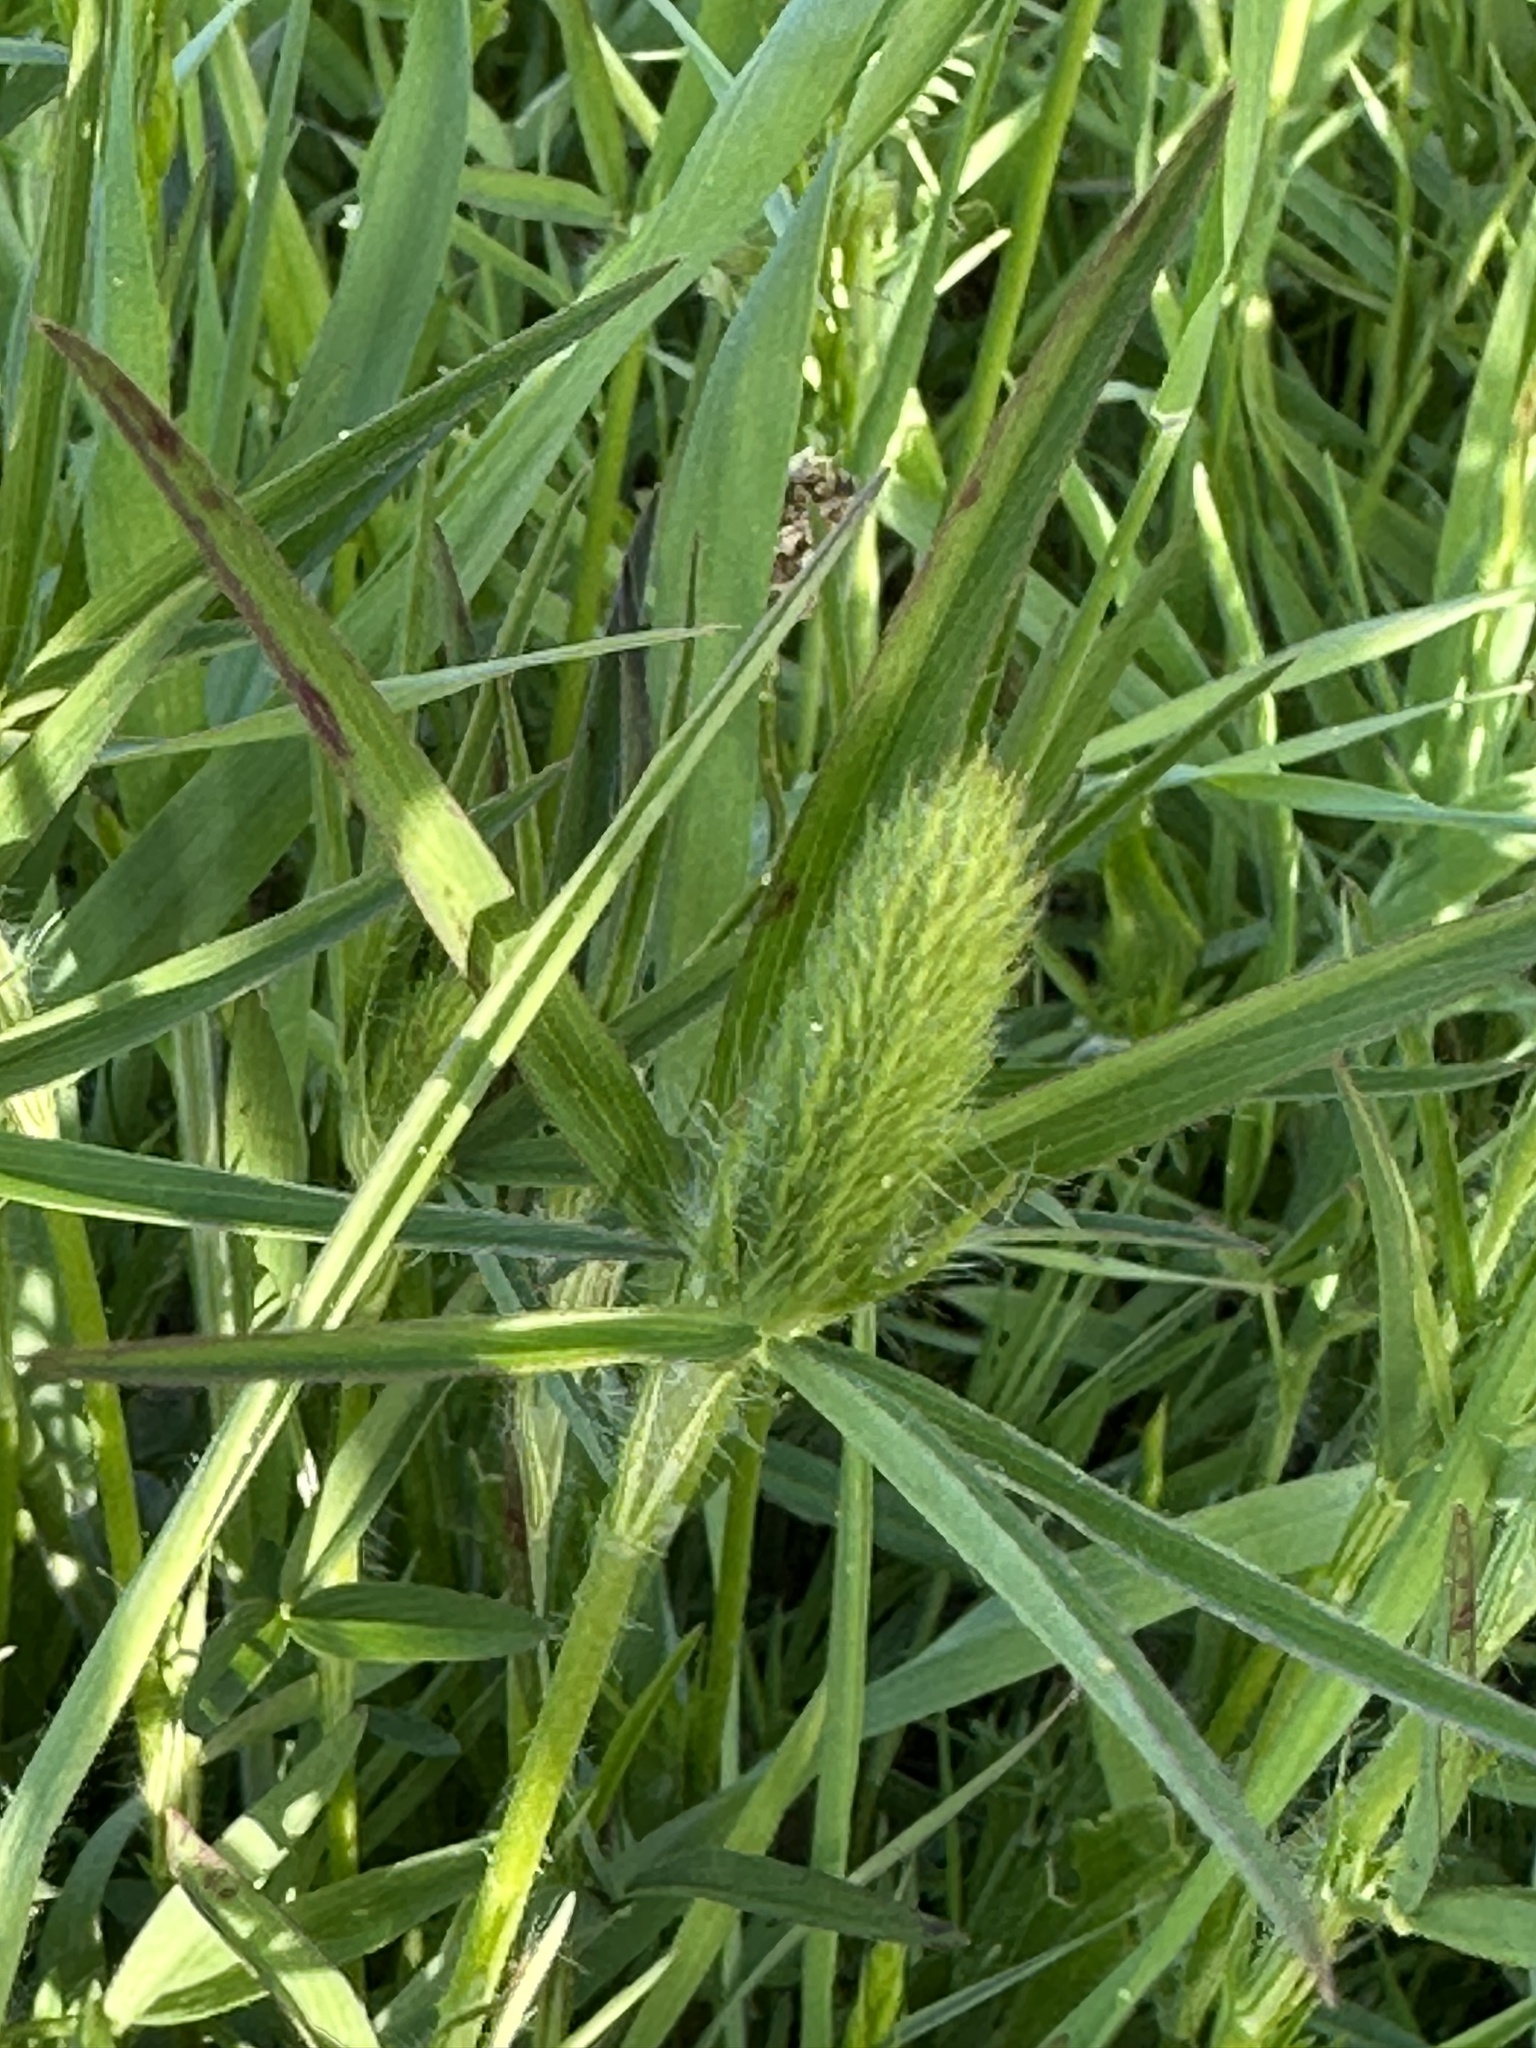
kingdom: Plantae
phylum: Tracheophyta
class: Magnoliopsida
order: Fabales
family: Fabaceae
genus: Trifolium
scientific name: Trifolium angustifolium
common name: Narrow clover
